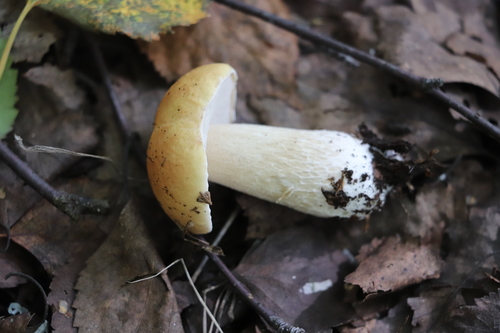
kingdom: Fungi
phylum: Basidiomycota
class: Agaricomycetes
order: Boletales
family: Boletaceae
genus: Boletus
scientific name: Boletus edulis
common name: Cep
